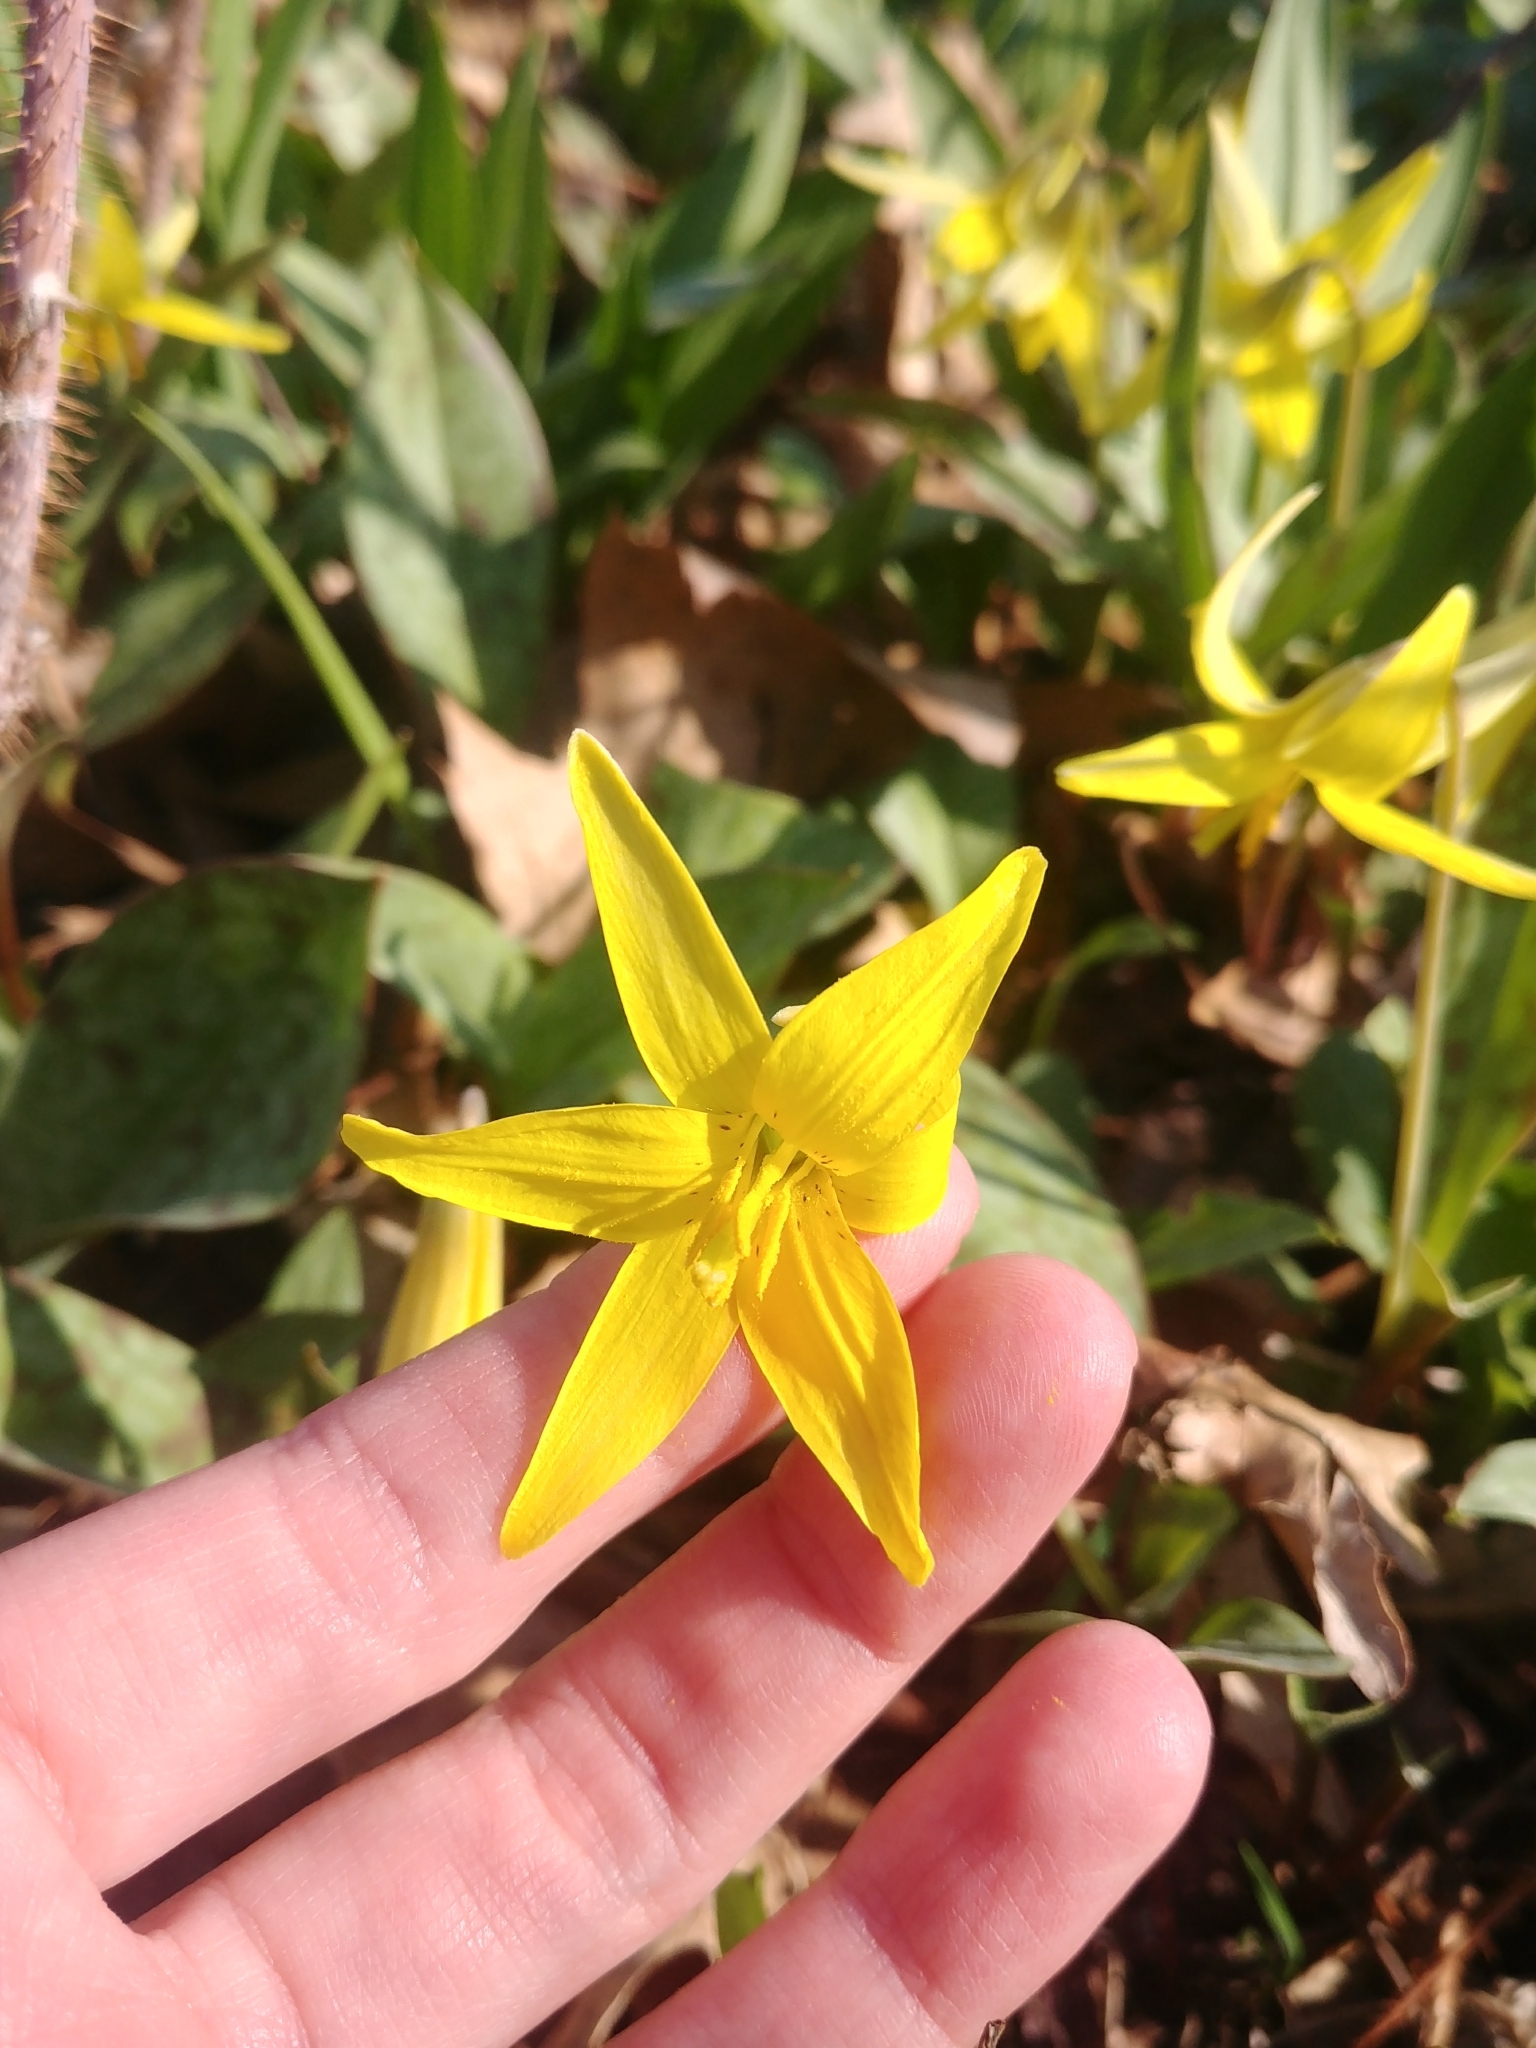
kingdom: Plantae
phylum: Tracheophyta
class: Liliopsida
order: Liliales
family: Liliaceae
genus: Erythronium
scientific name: Erythronium americanum
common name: Yellow adder's-tongue
